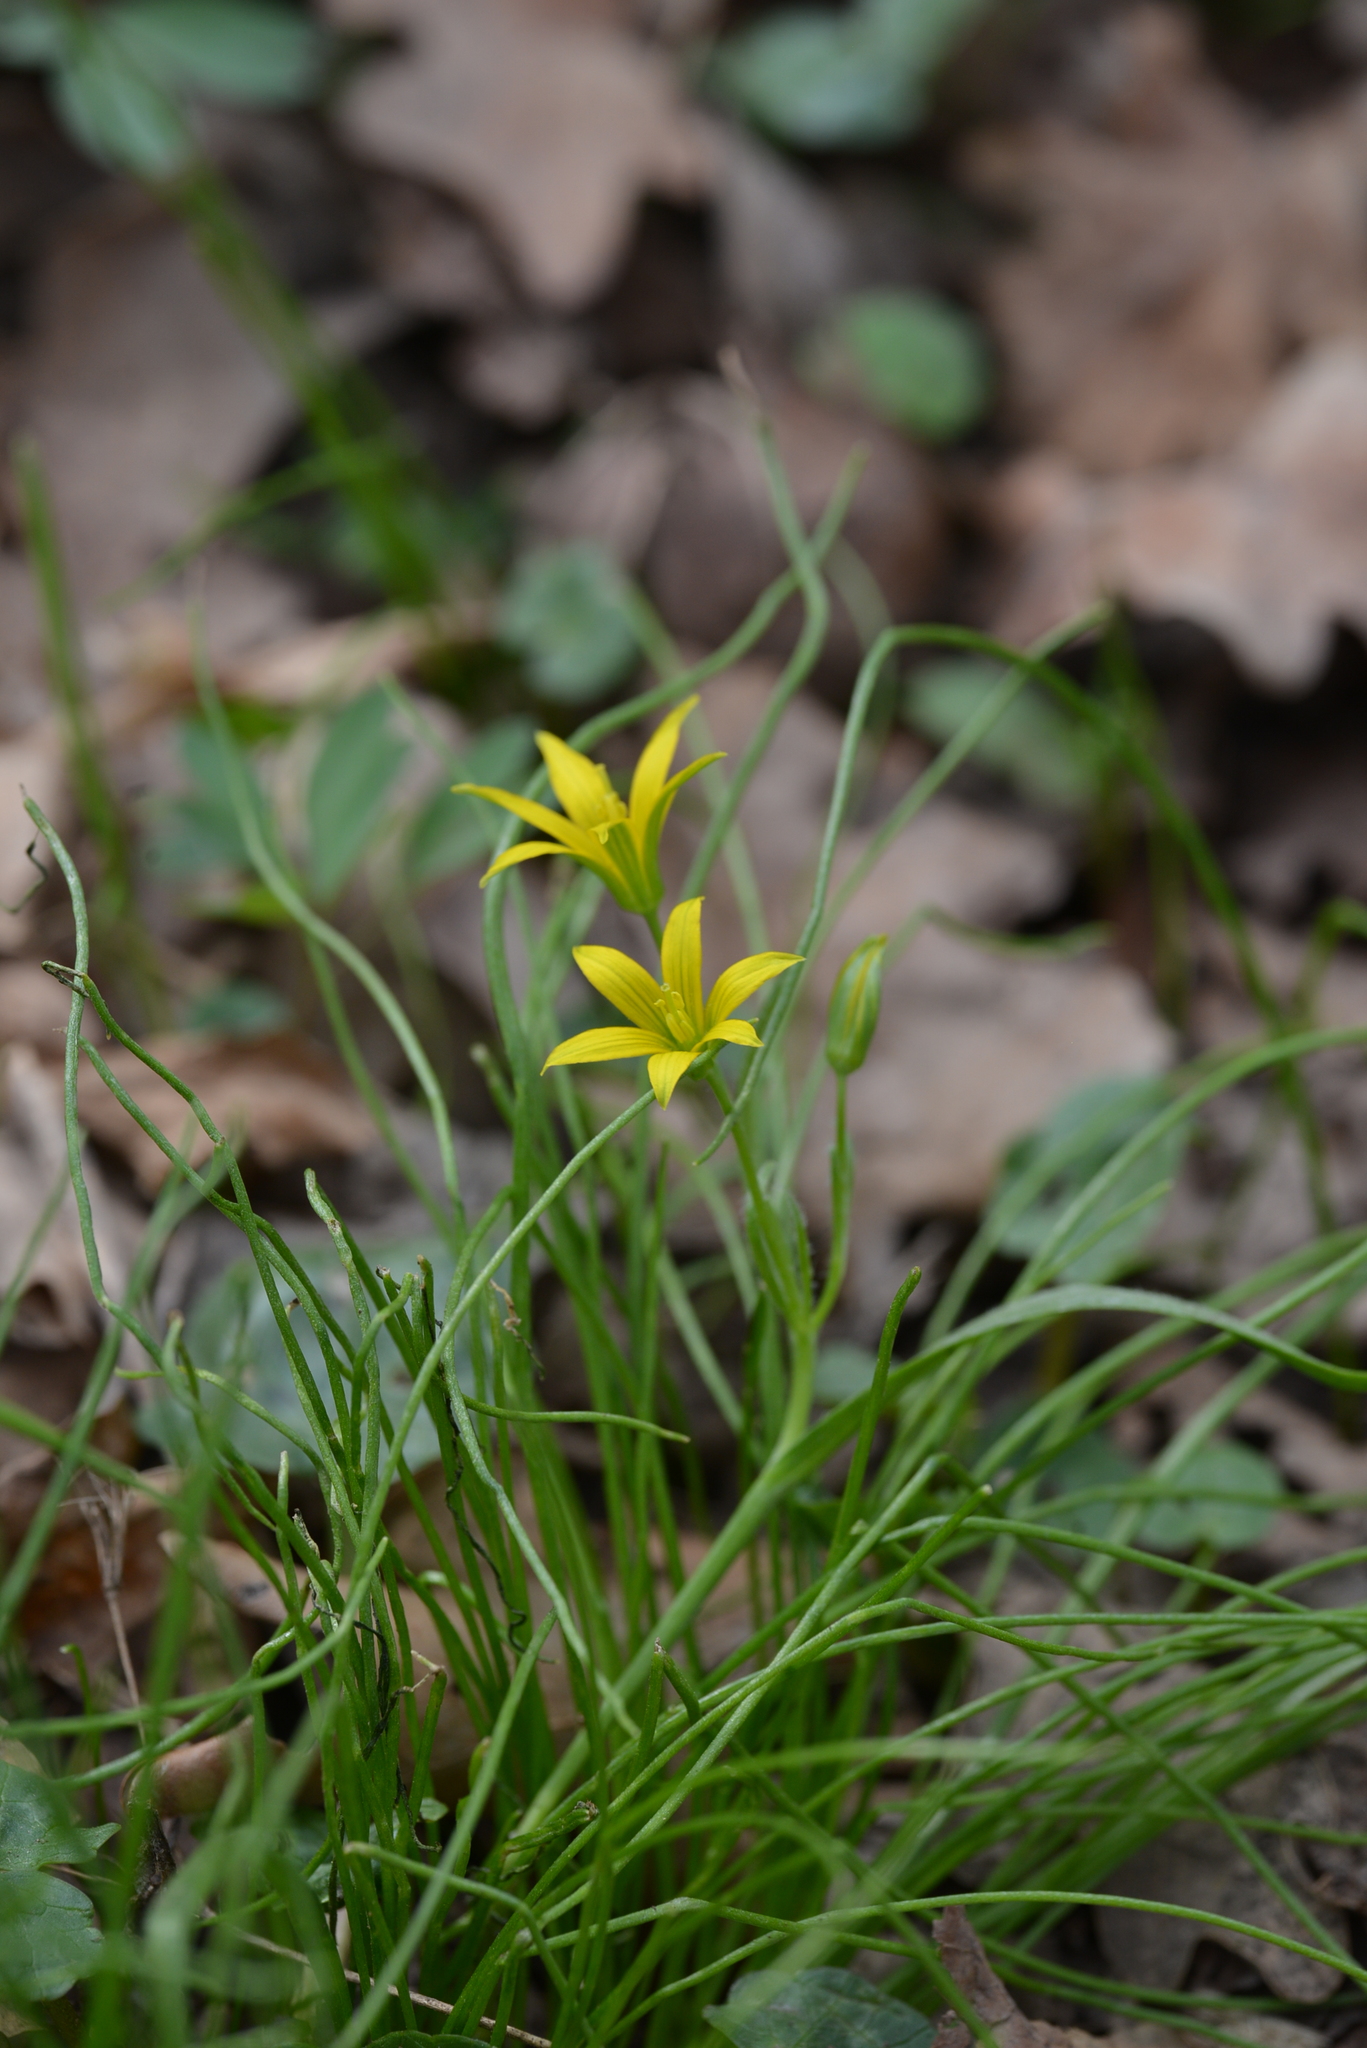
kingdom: Plantae
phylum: Tracheophyta
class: Liliopsida
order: Liliales
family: Liliaceae
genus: Gagea
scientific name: Gagea minima
